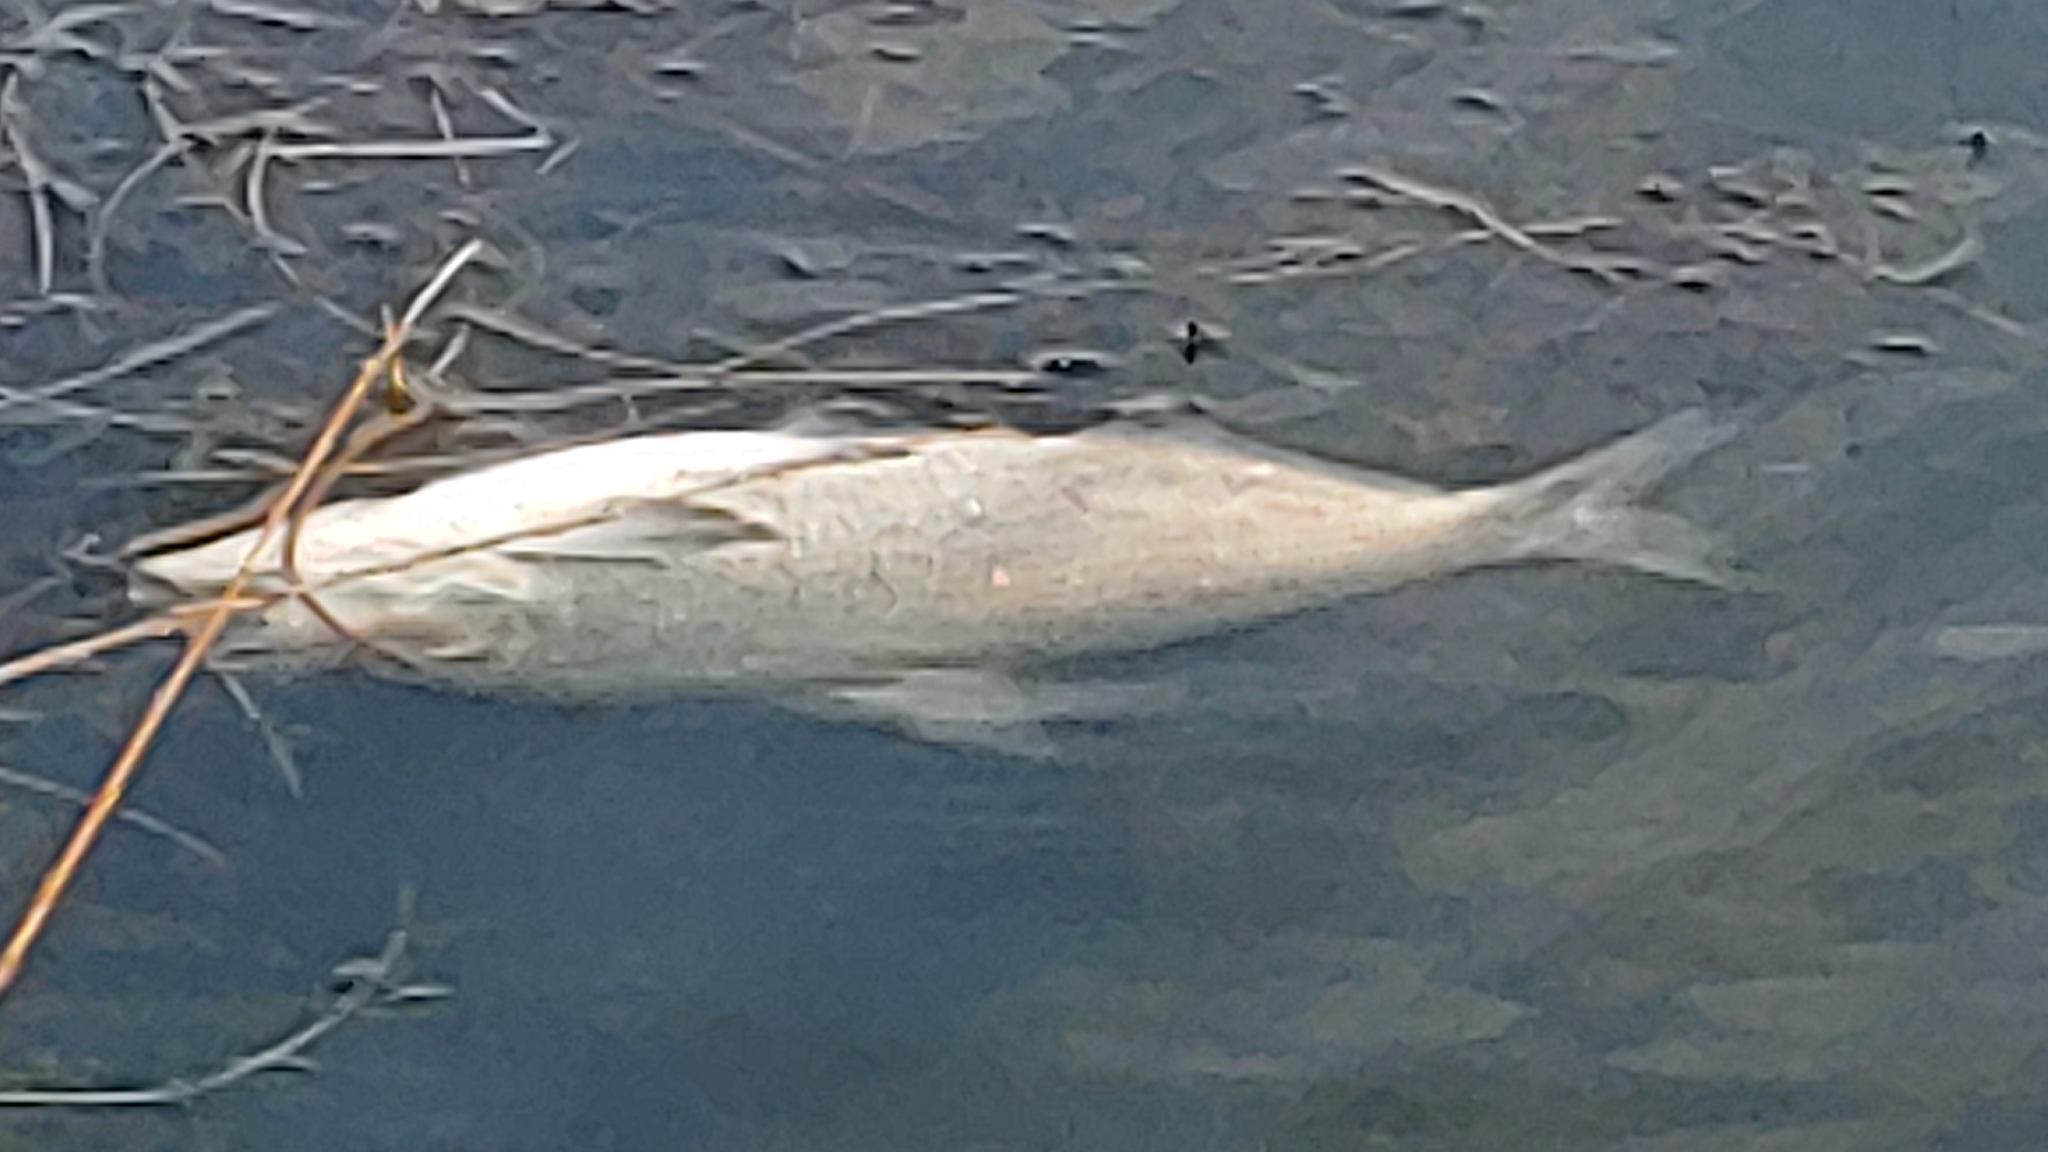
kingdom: Animalia
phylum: Chordata
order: Clupeiformes
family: Clupeidae
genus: Dorosoma
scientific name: Dorosoma cepedianum
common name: Gizzard shad
